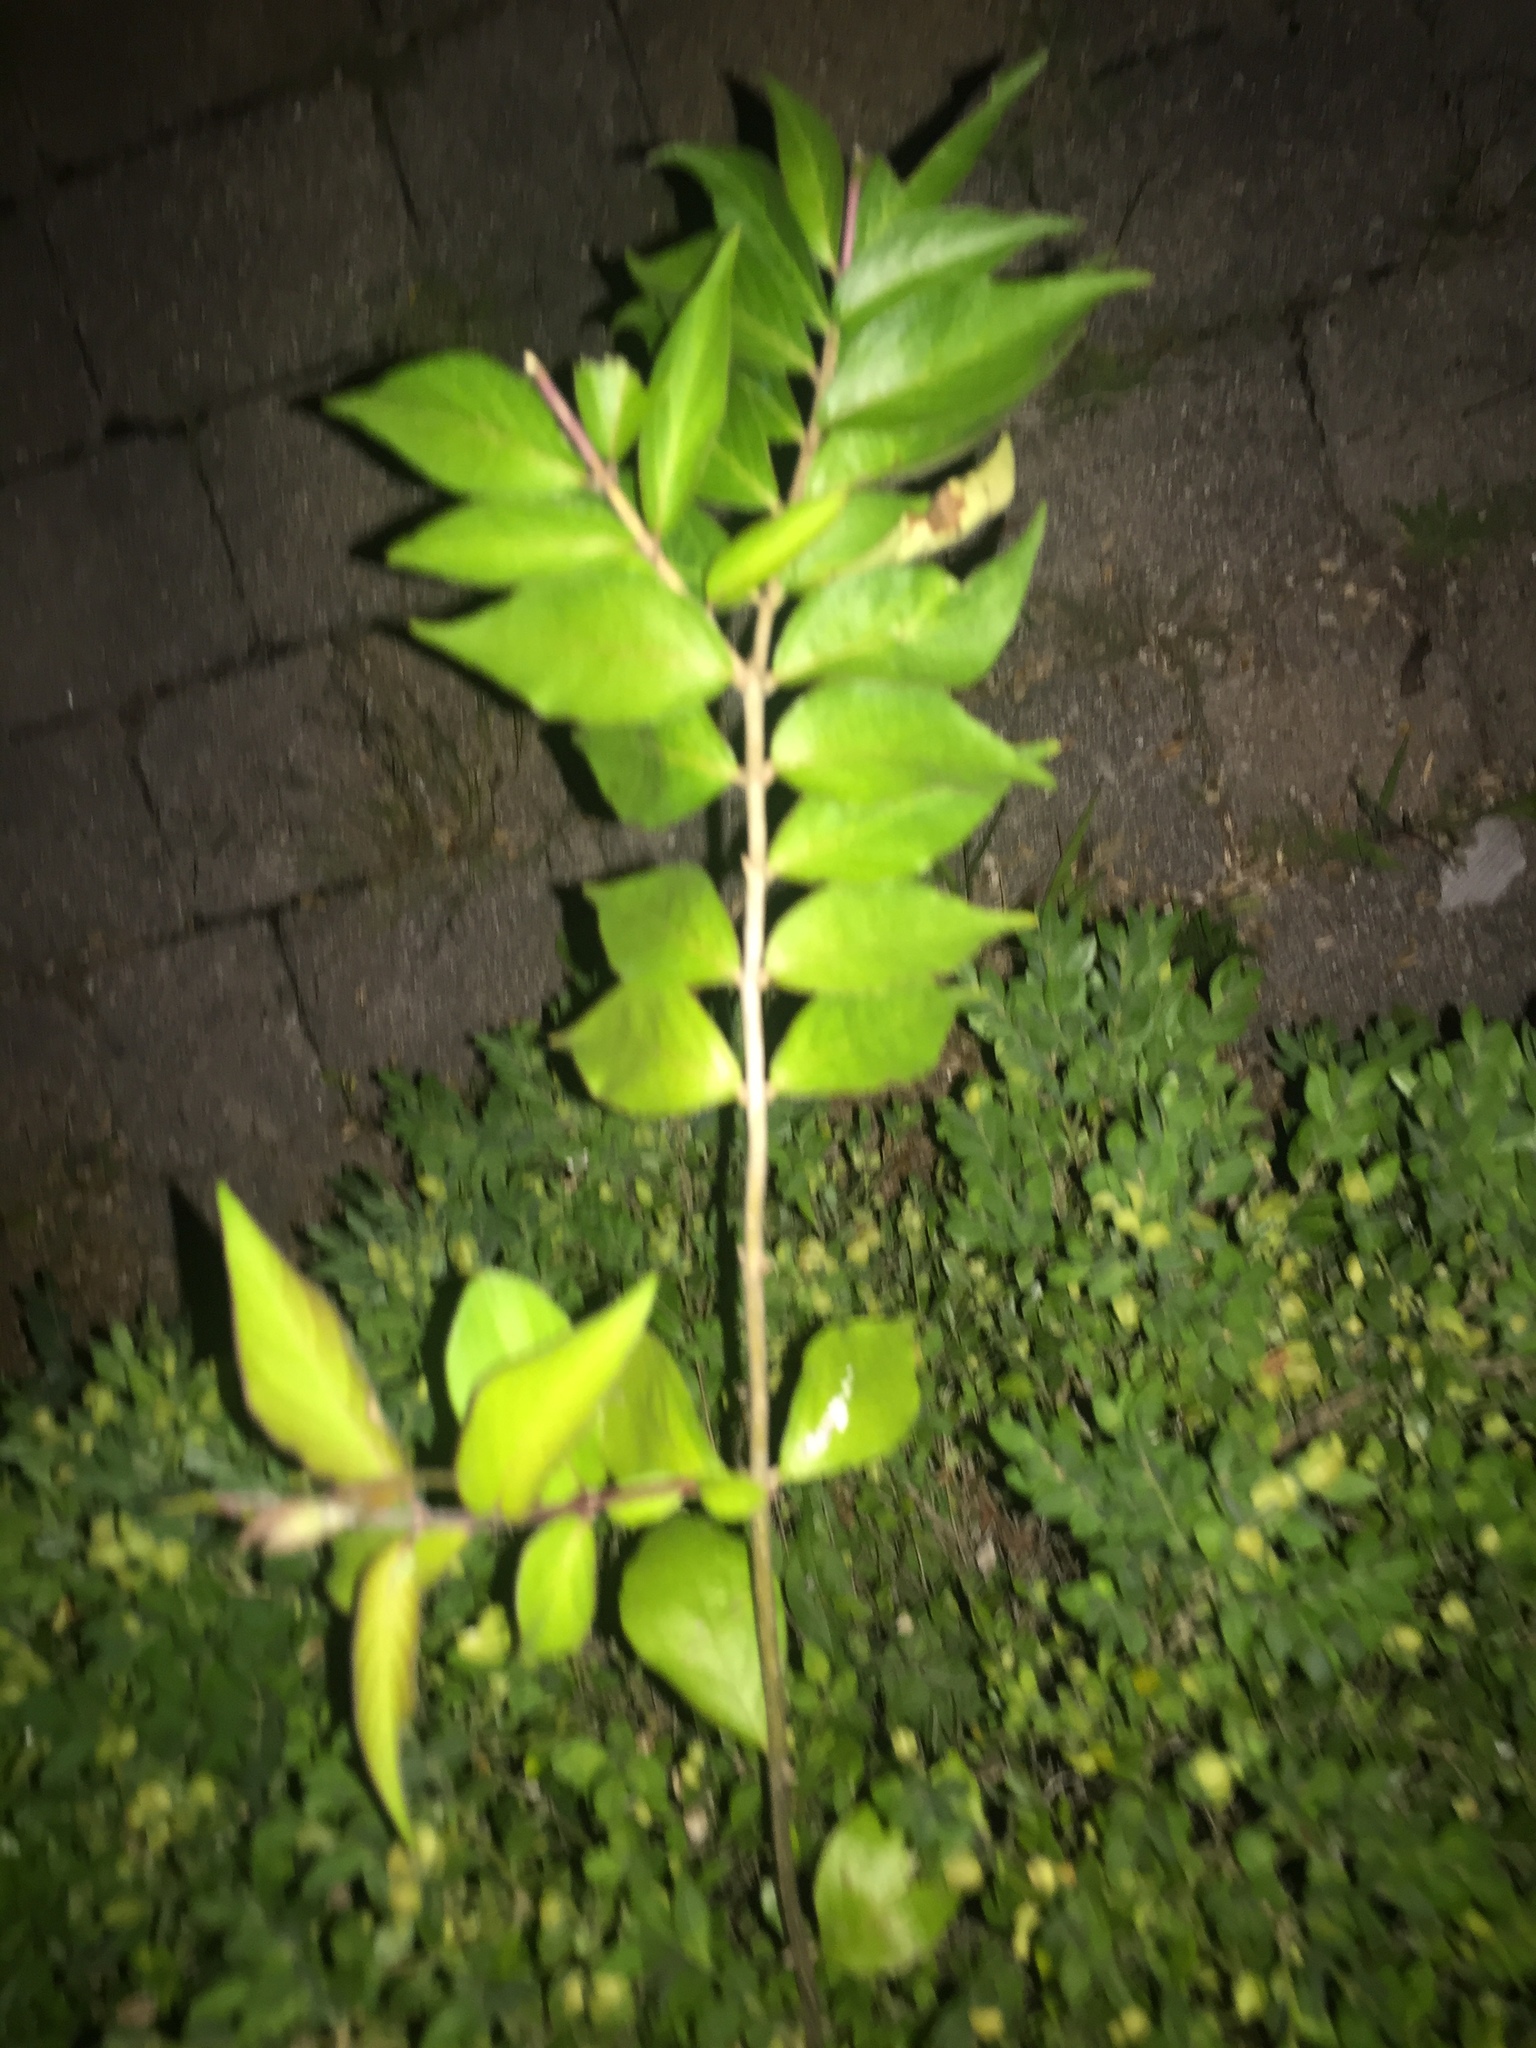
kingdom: Plantae
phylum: Tracheophyta
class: Magnoliopsida
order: Dipsacales
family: Caprifoliaceae
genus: Lonicera
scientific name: Lonicera maackii
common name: Amur honeysuckle
